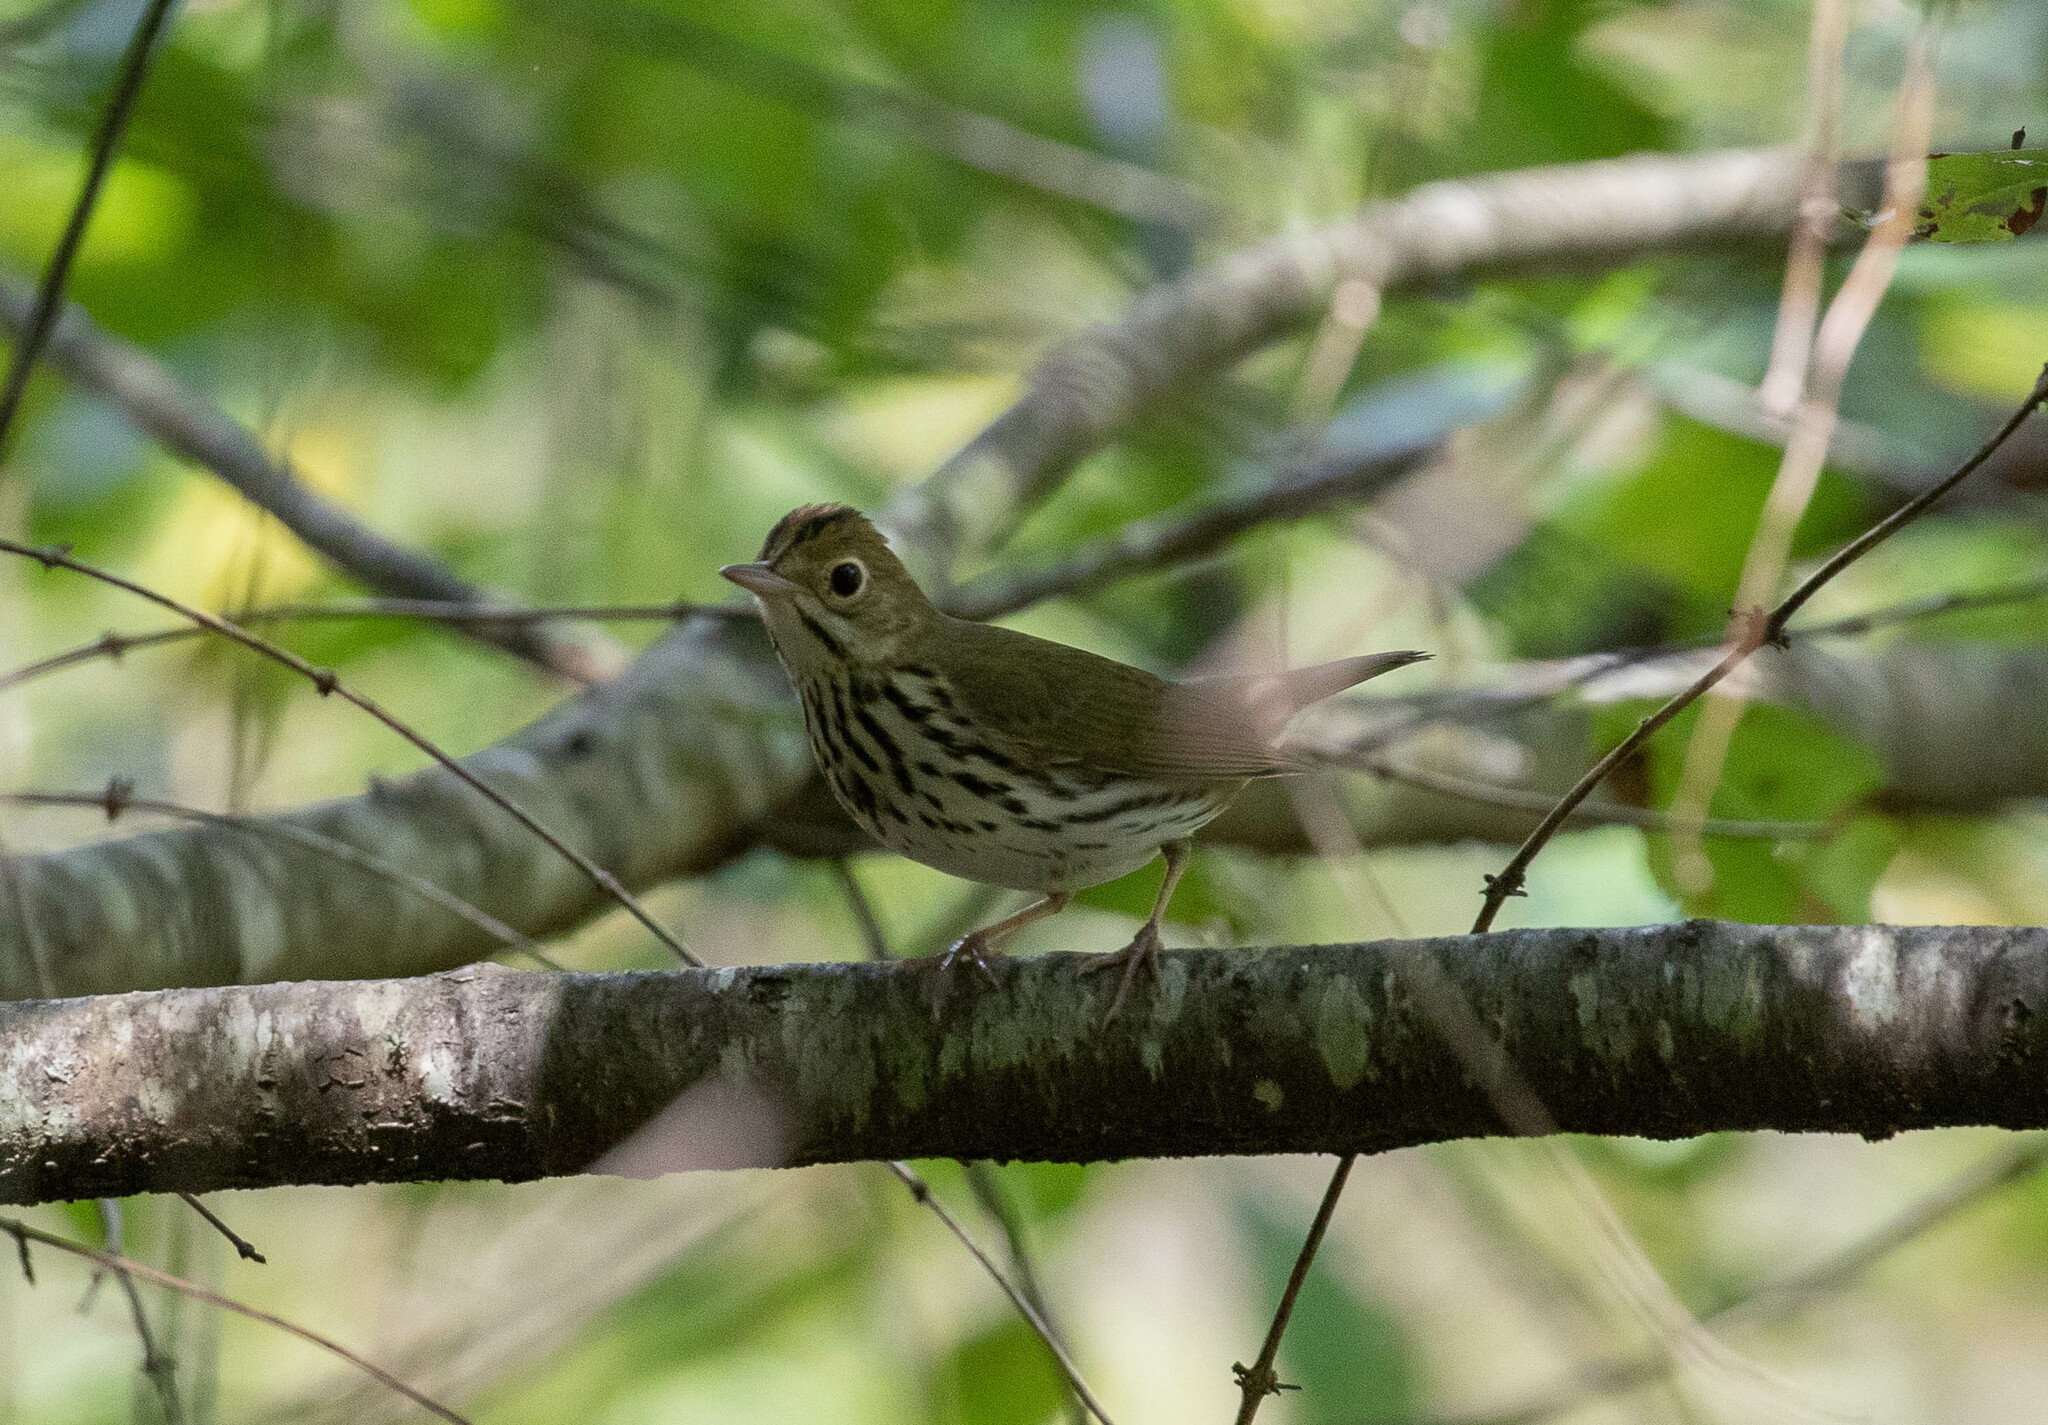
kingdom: Animalia
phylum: Chordata
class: Aves
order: Passeriformes
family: Parulidae
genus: Seiurus
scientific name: Seiurus aurocapilla
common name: Ovenbird
